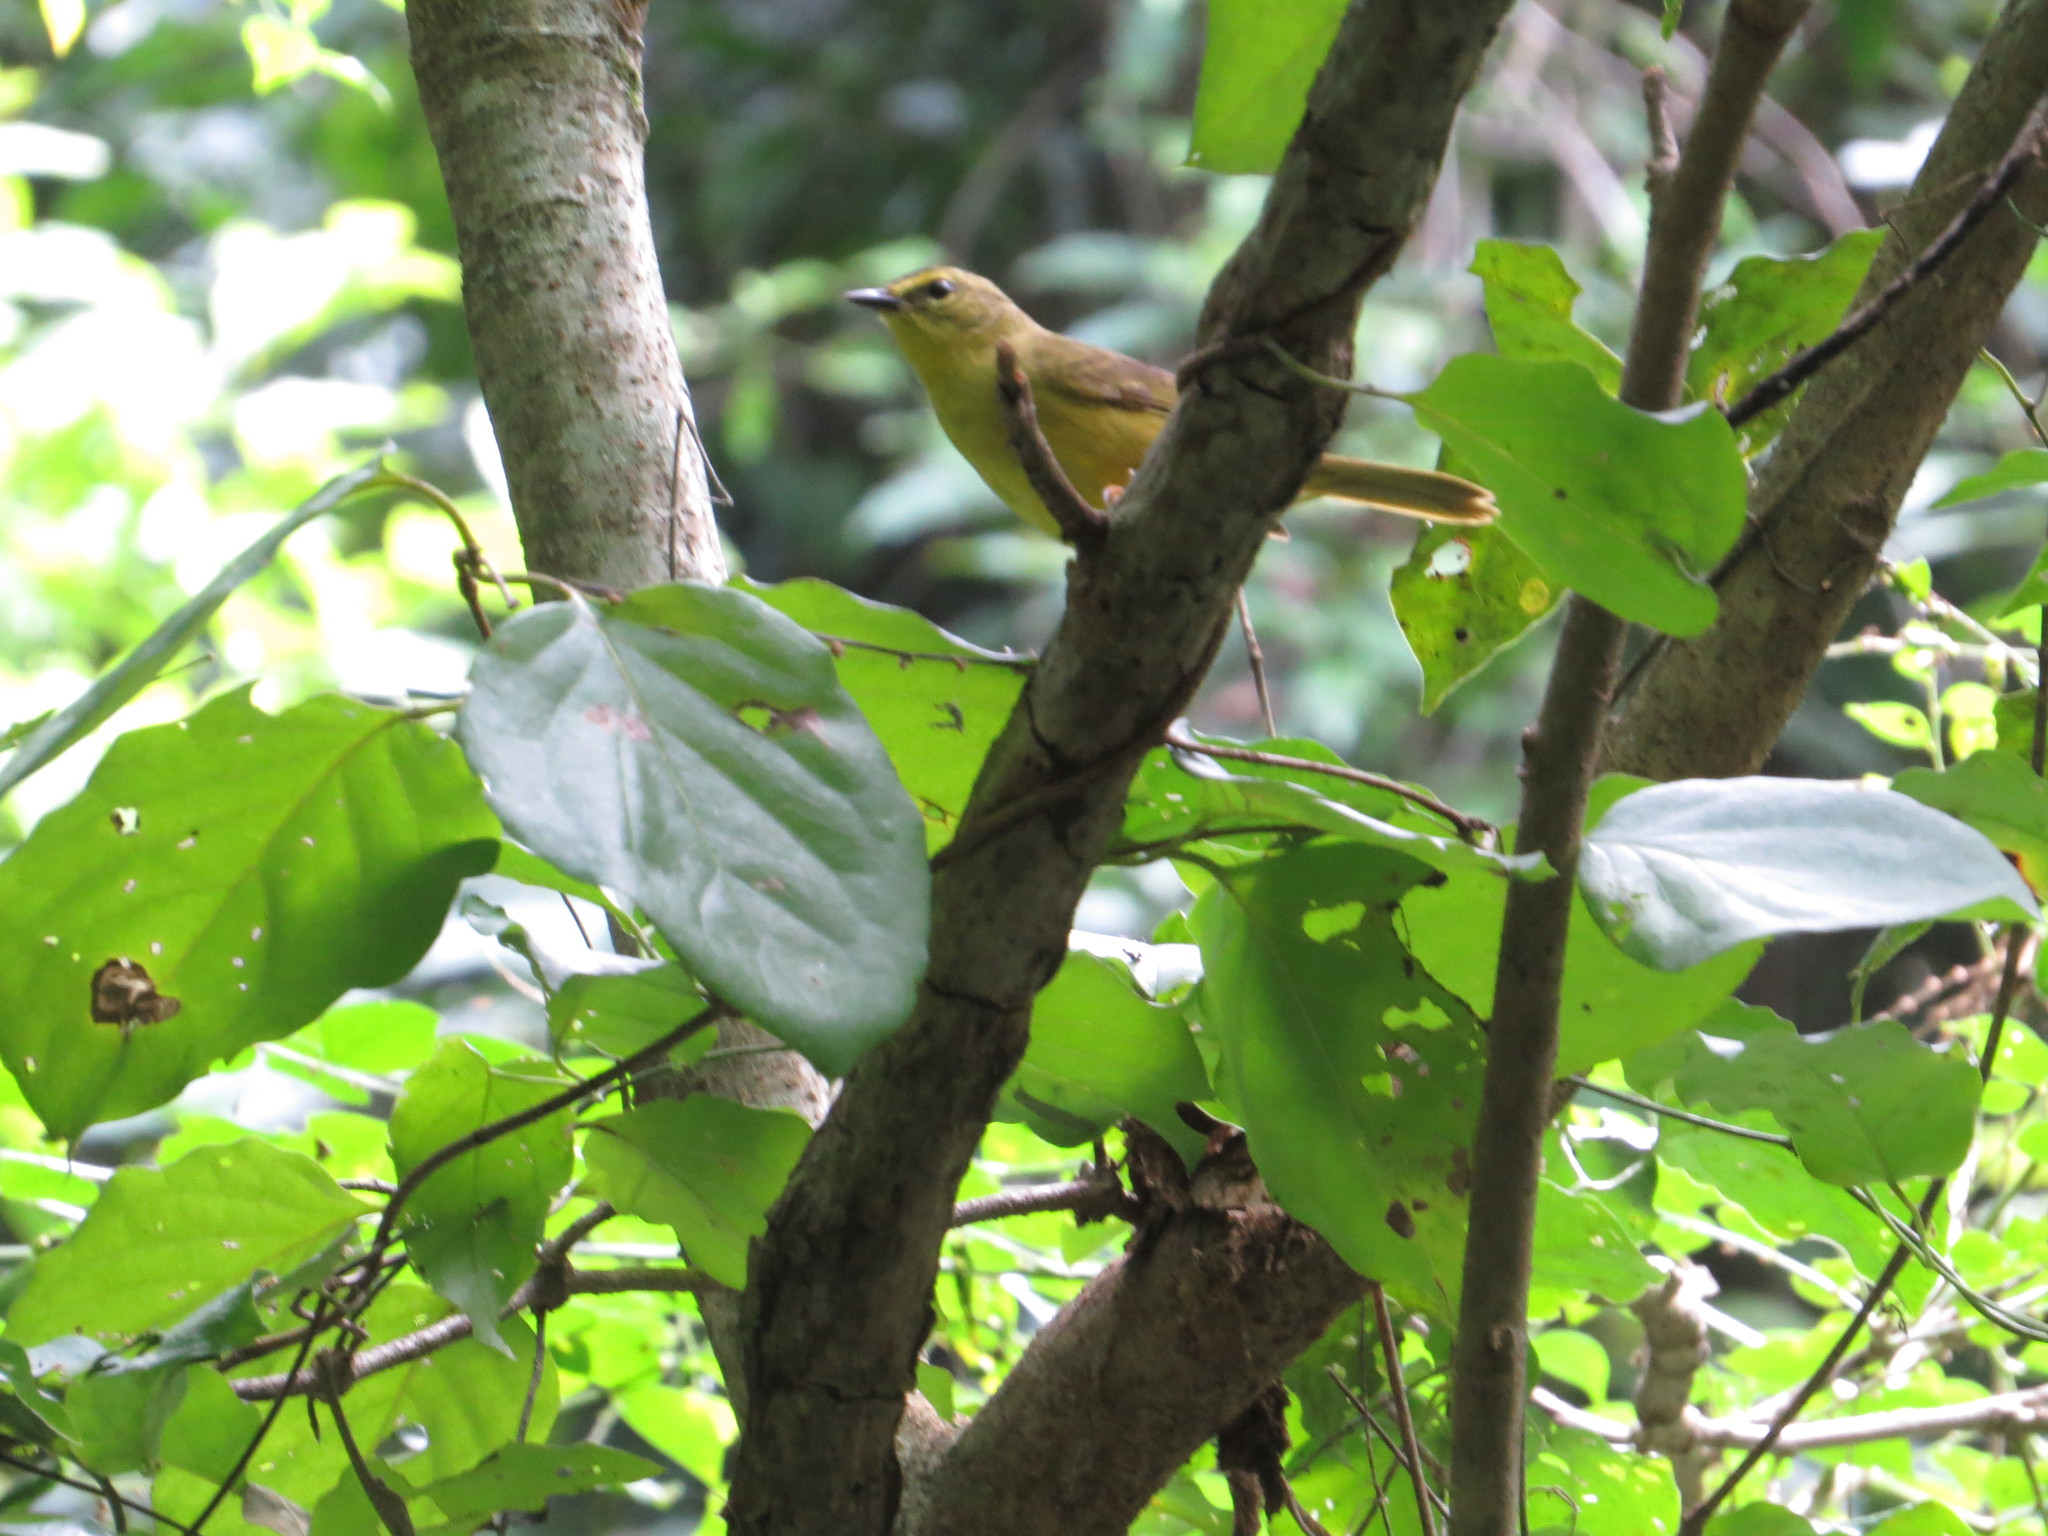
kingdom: Animalia
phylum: Chordata
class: Aves
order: Passeriformes
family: Parulidae
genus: Myiothlypis
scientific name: Myiothlypis bivittata
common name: Two-banded warbler
